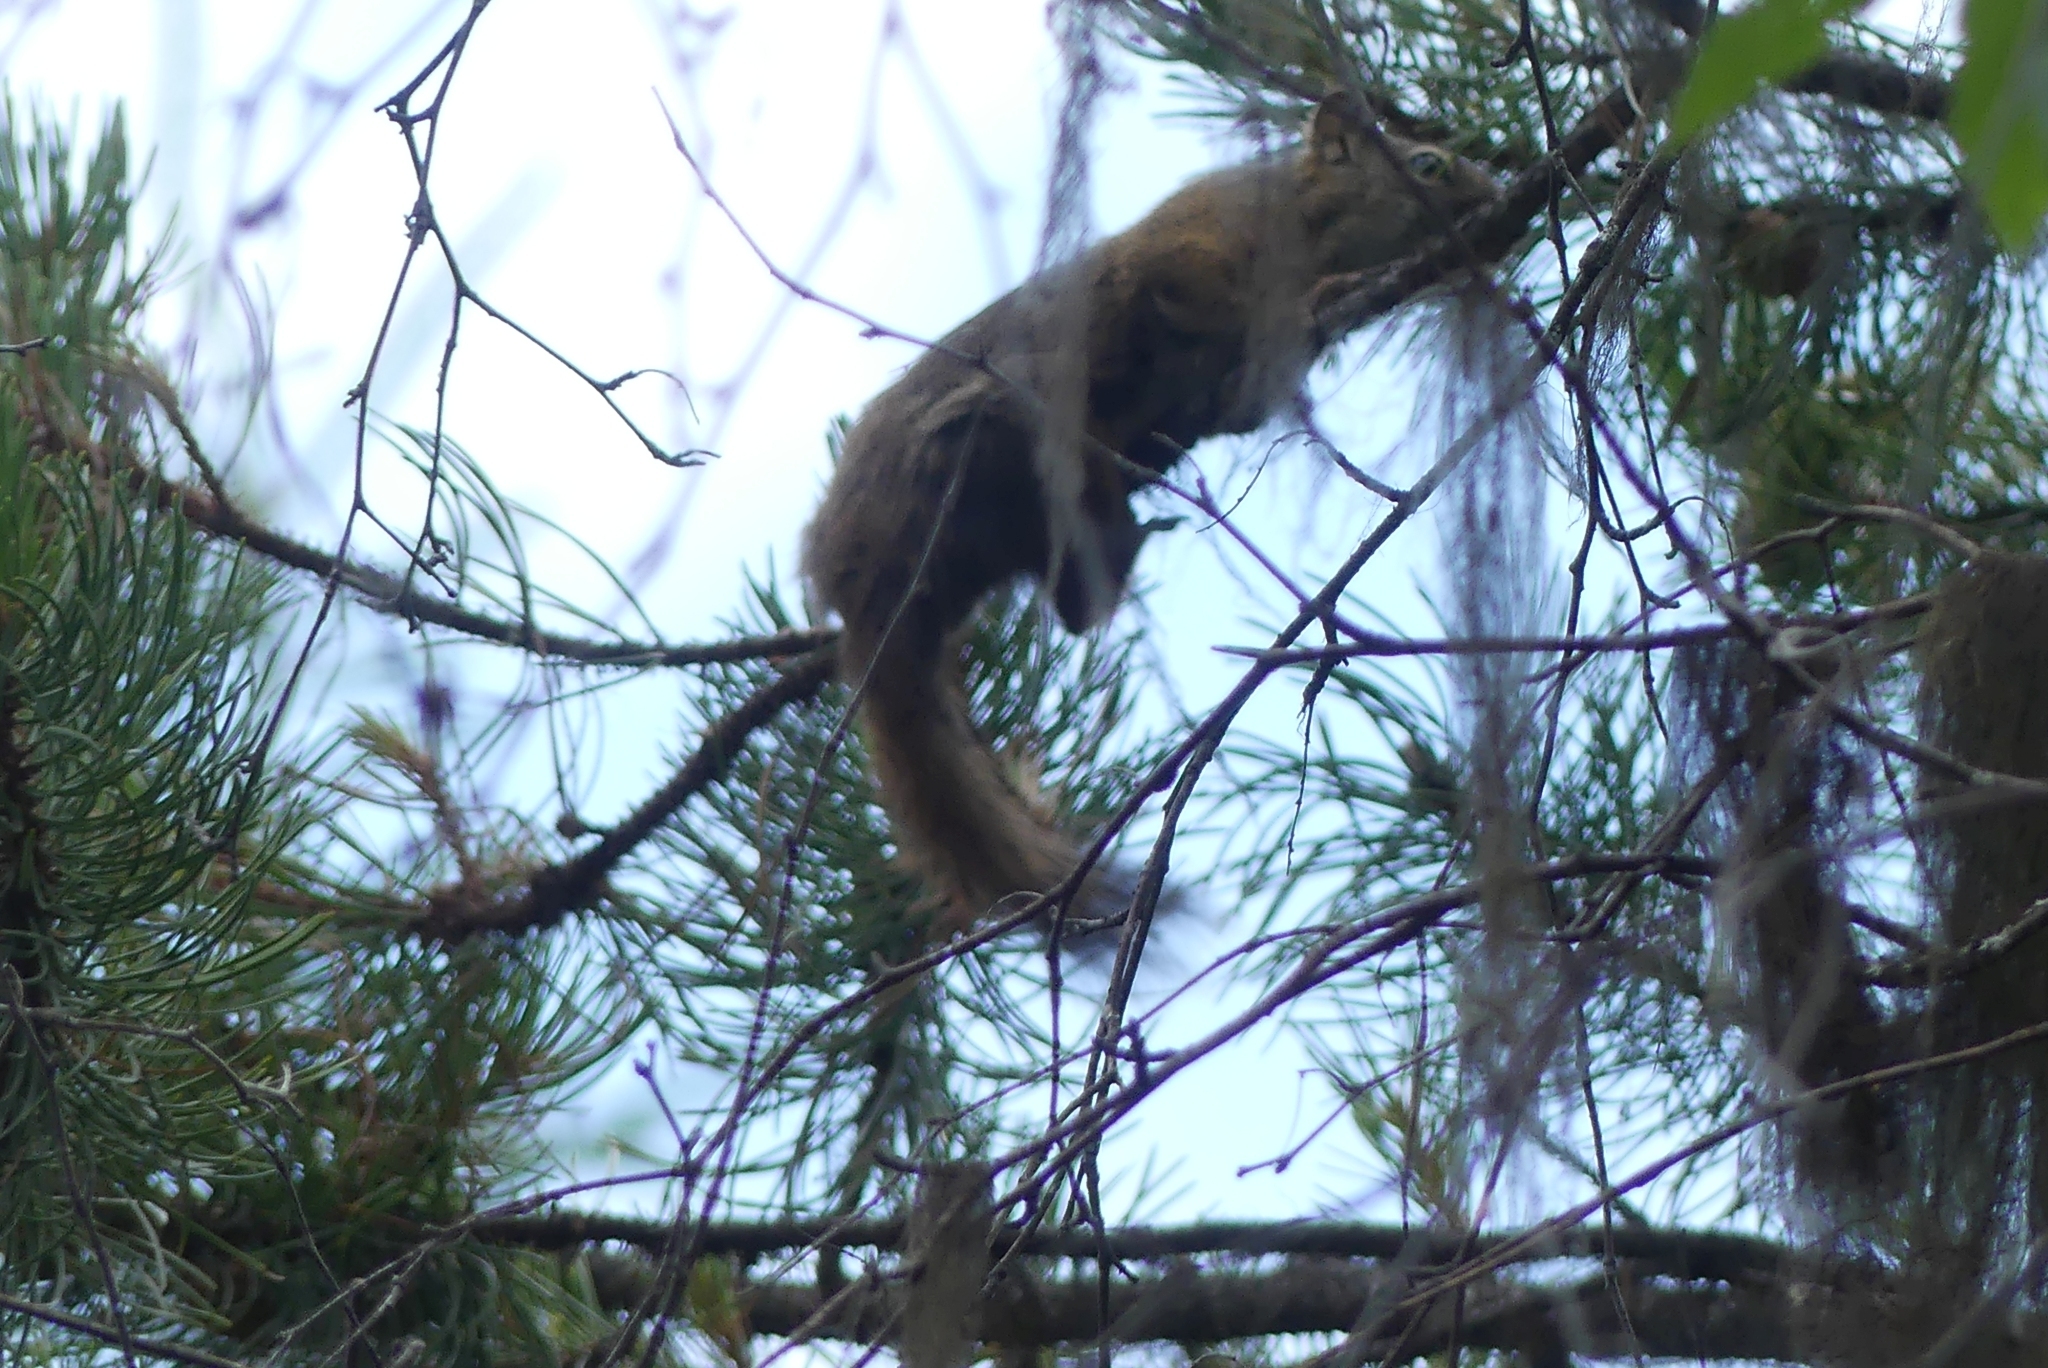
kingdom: Animalia
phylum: Chordata
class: Mammalia
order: Rodentia
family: Sciuridae
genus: Tamiasciurus
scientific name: Tamiasciurus hudsonicus
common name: Red squirrel
